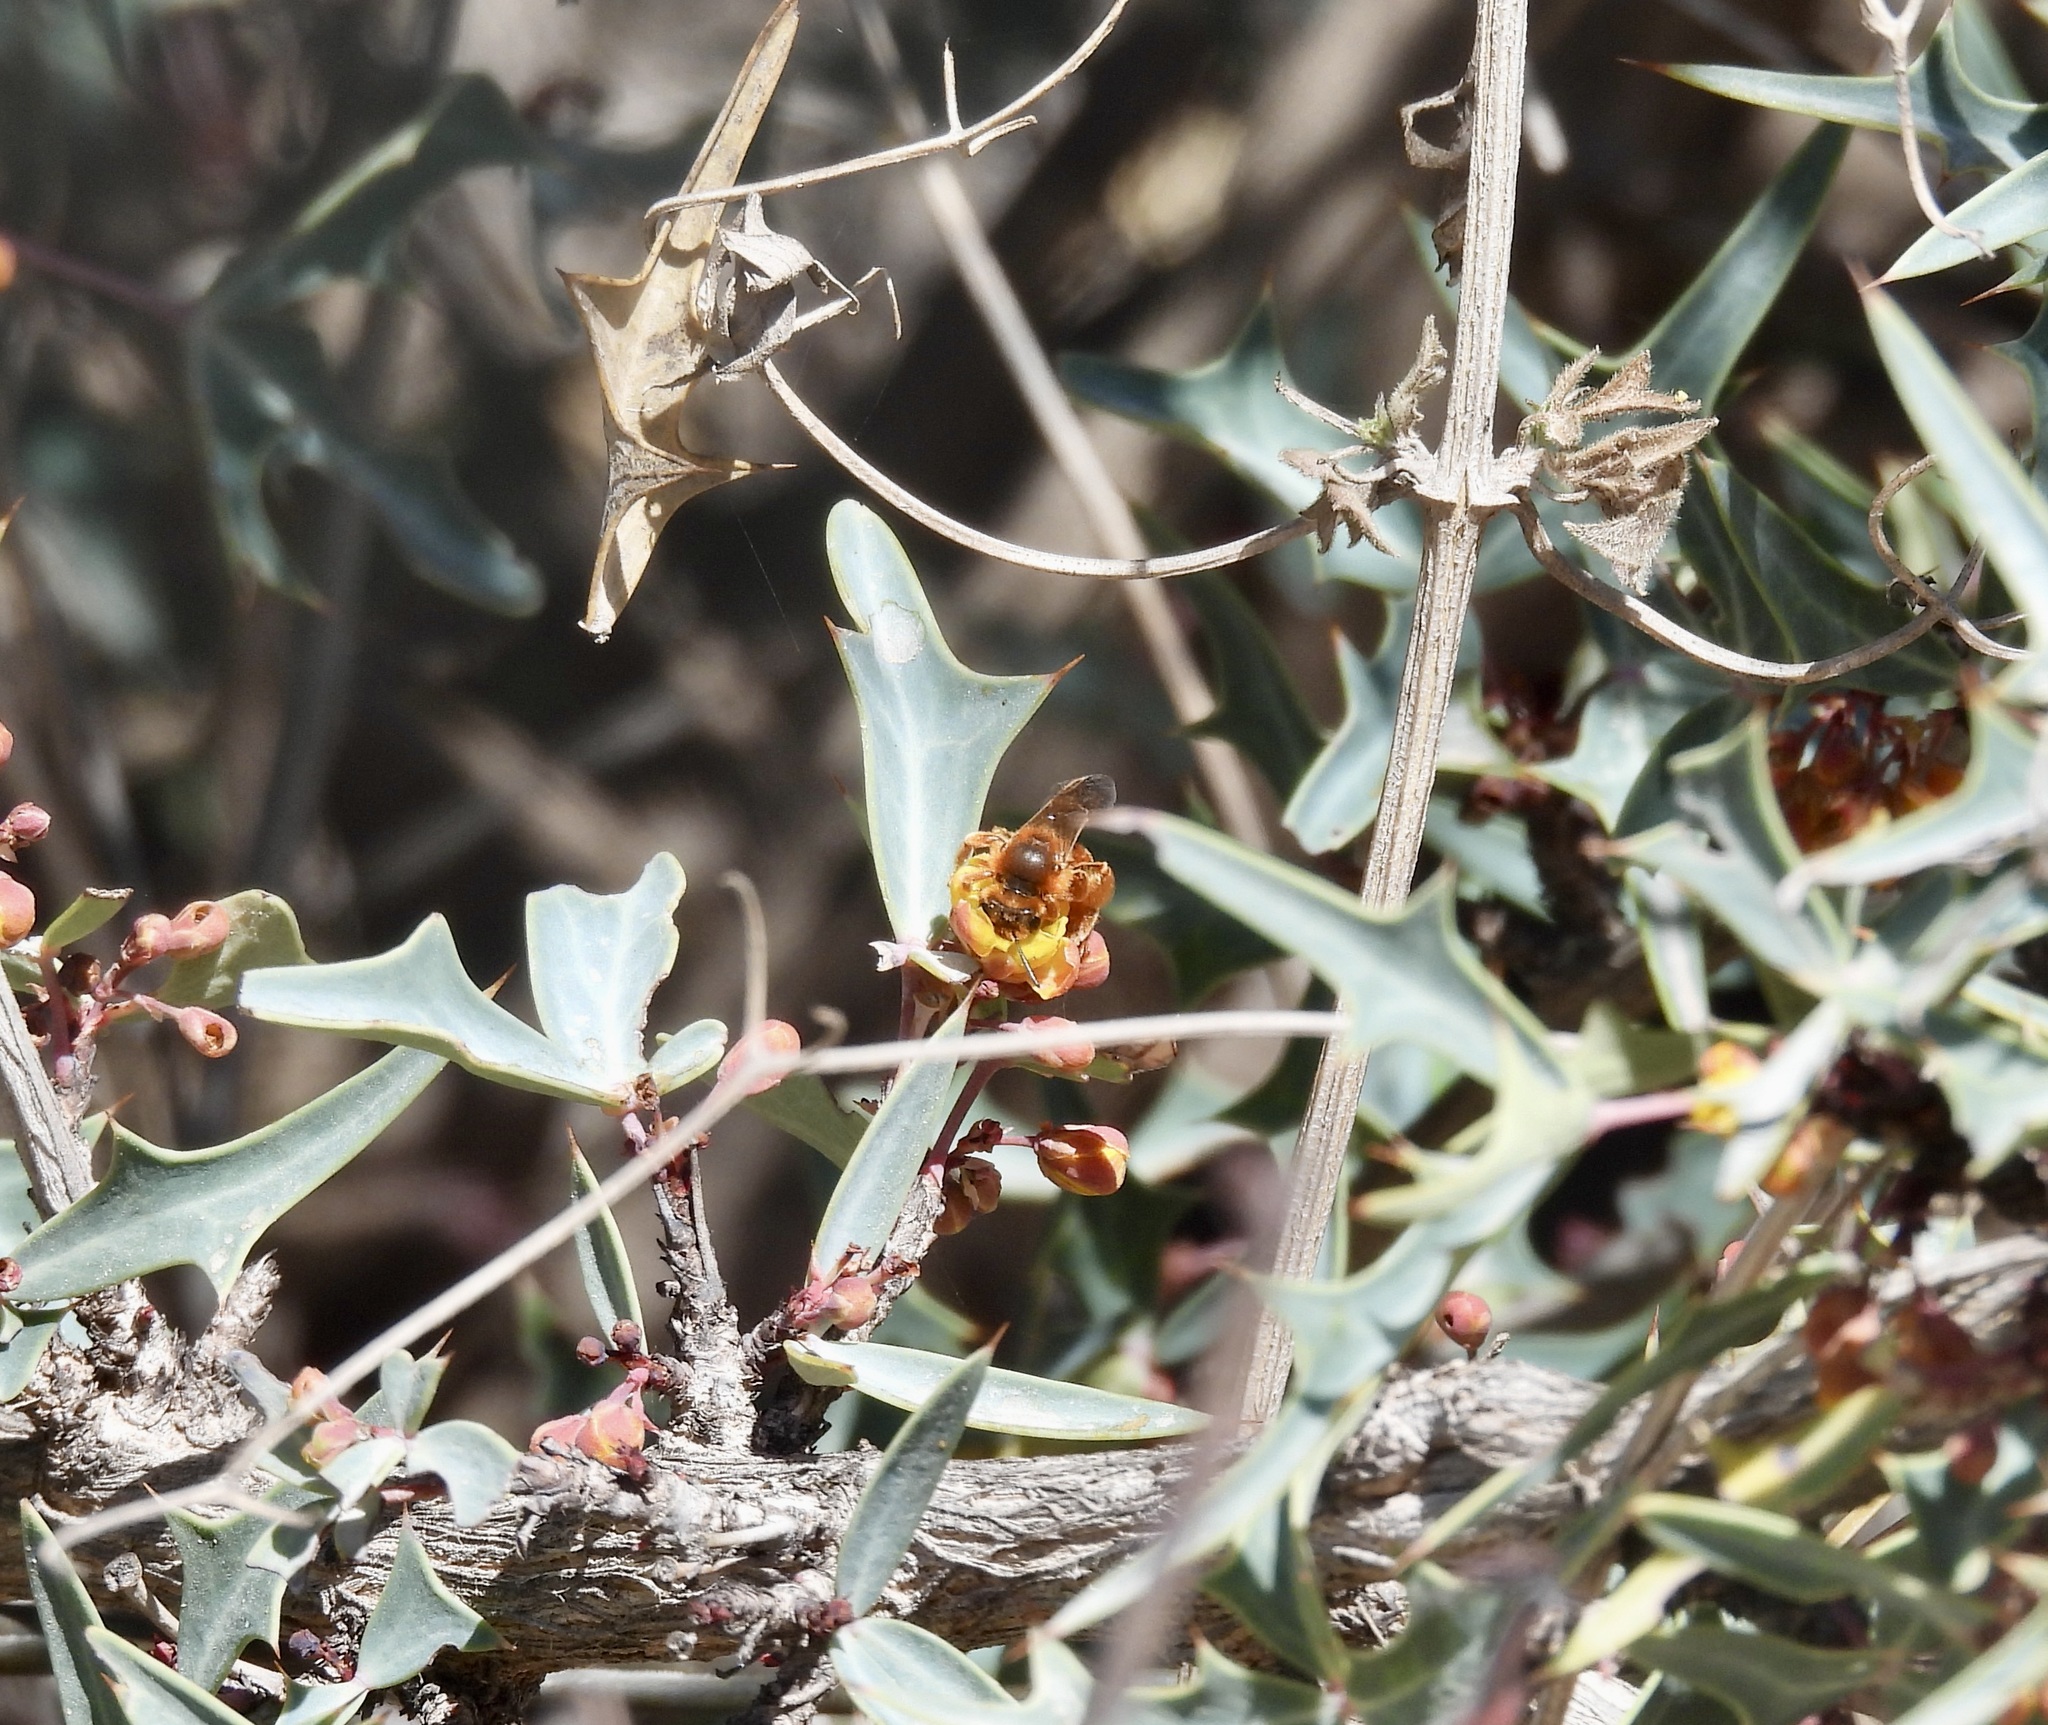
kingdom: Animalia
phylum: Arthropoda
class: Insecta
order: Hymenoptera
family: Andrenidae
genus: Andrena
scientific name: Andrena
